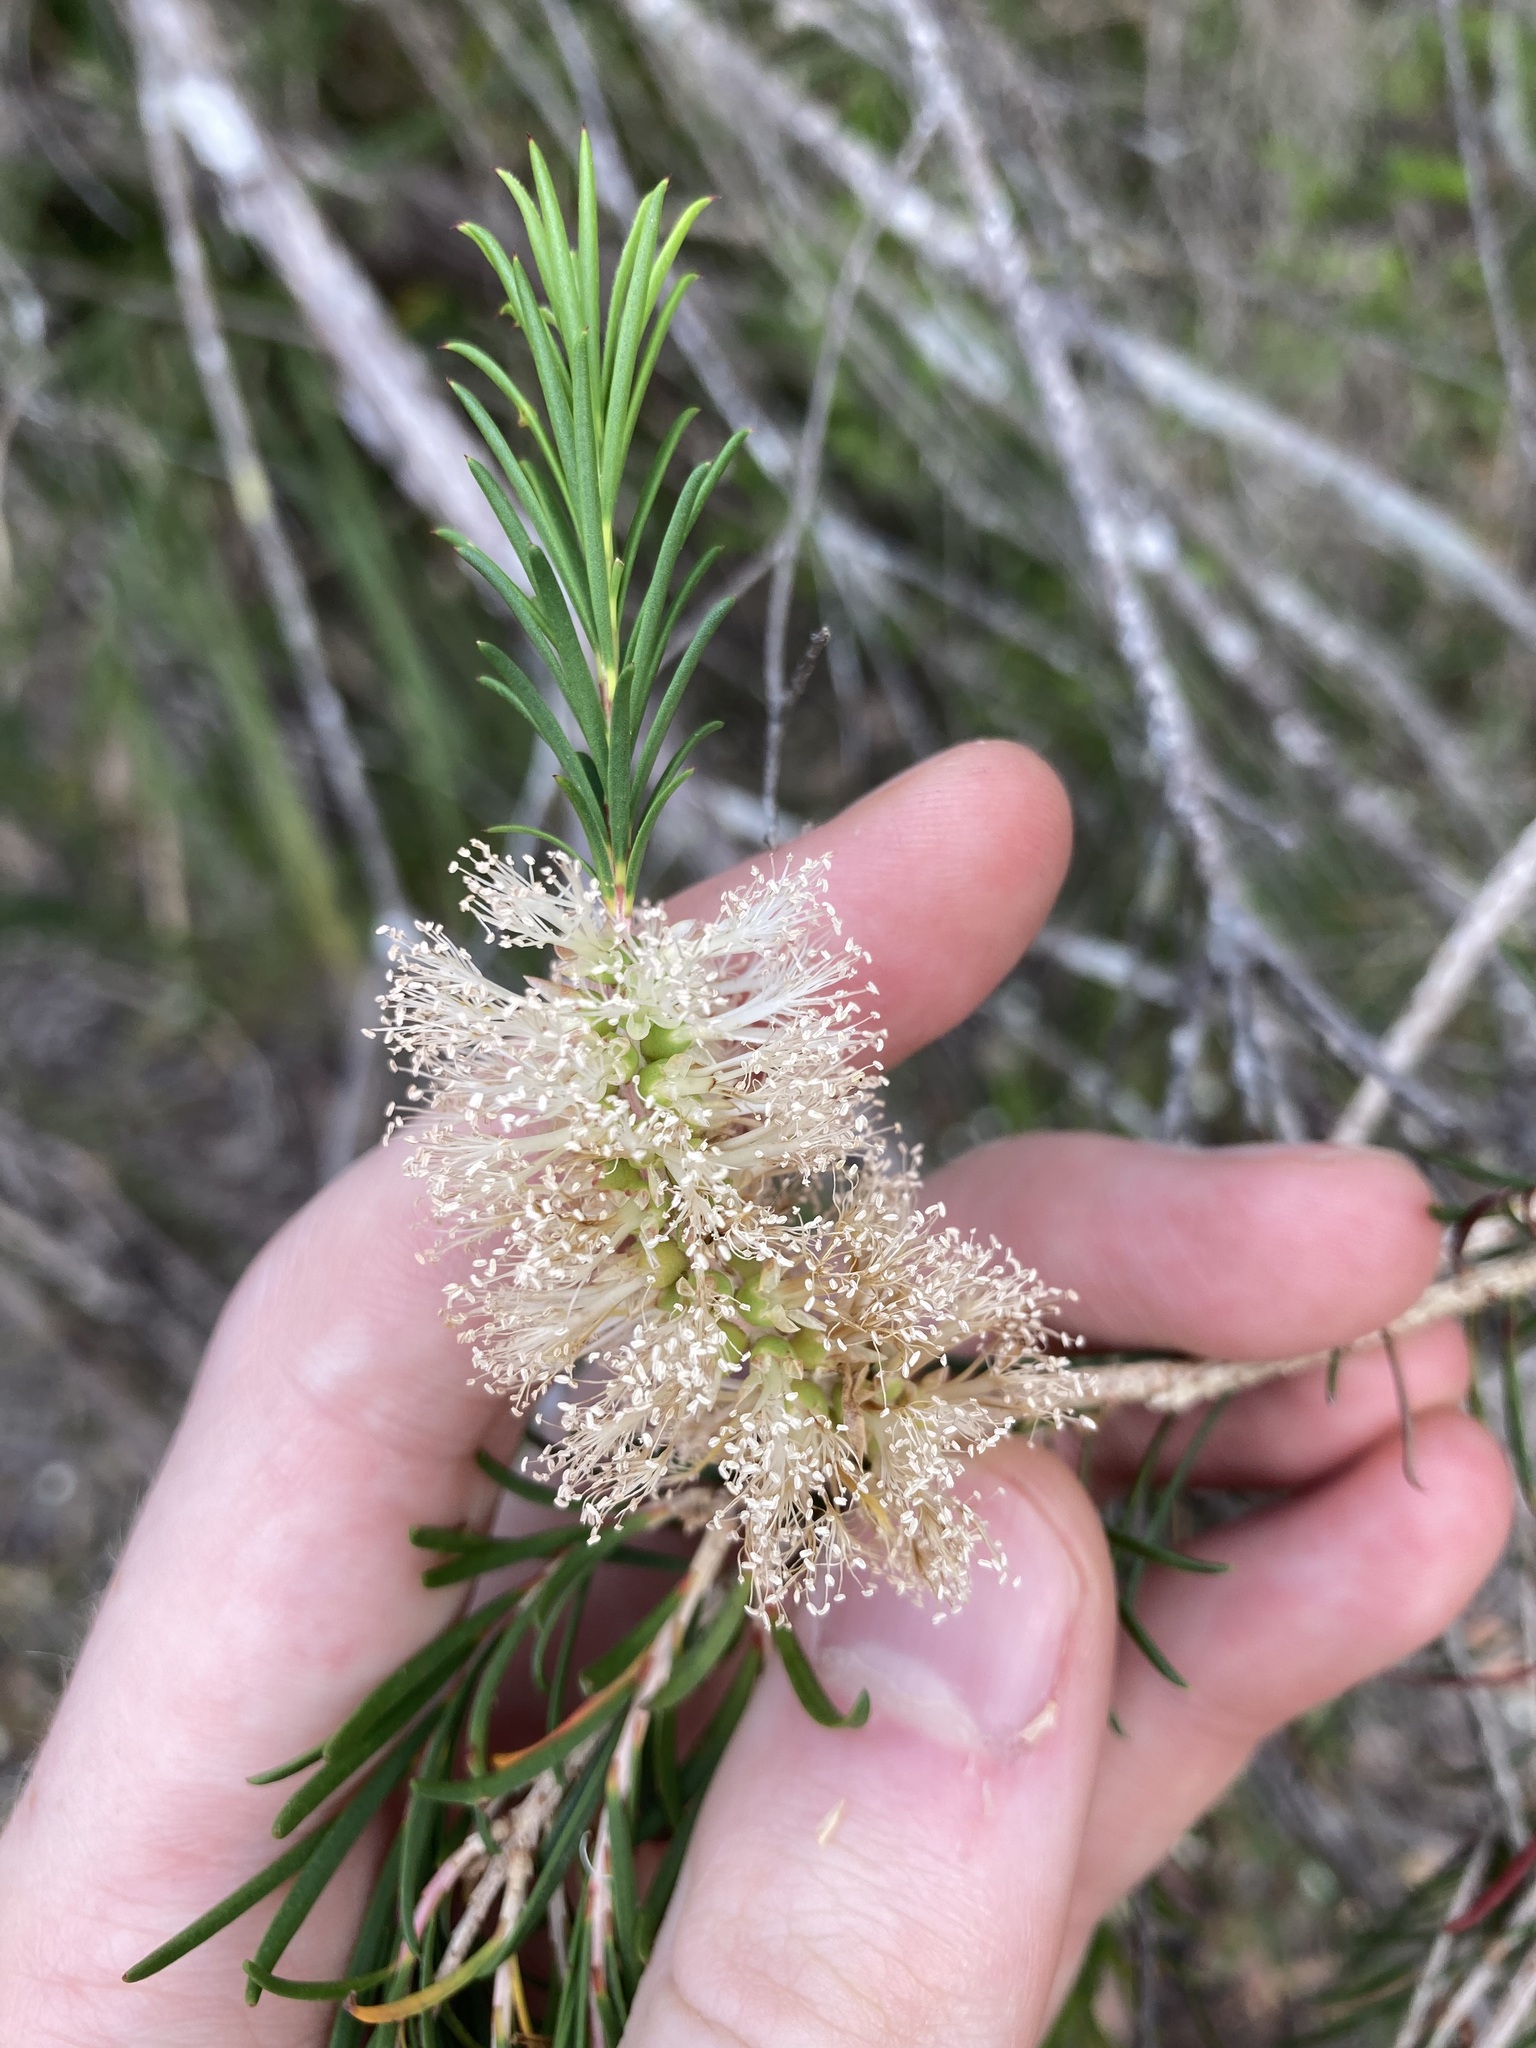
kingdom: Plantae
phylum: Tracheophyta
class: Magnoliopsida
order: Myrtales
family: Myrtaceae
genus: Melaleuca
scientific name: Melaleuca armillaris
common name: Bracelet honey myrtle
